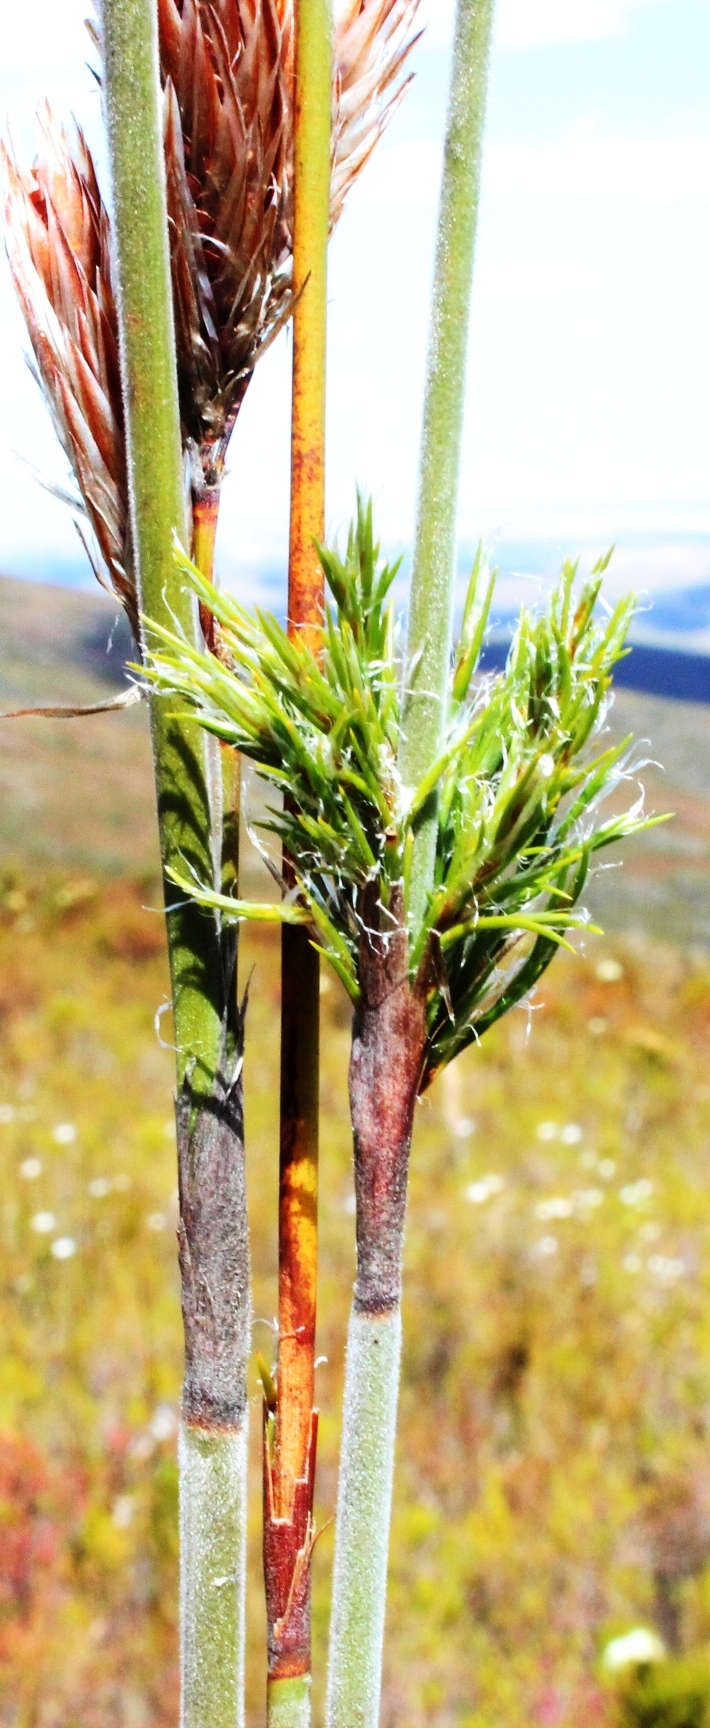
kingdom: Plantae
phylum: Tracheophyta
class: Liliopsida
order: Poales
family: Restionaceae
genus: Thamnochortus
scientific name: Thamnochortus cinereus
